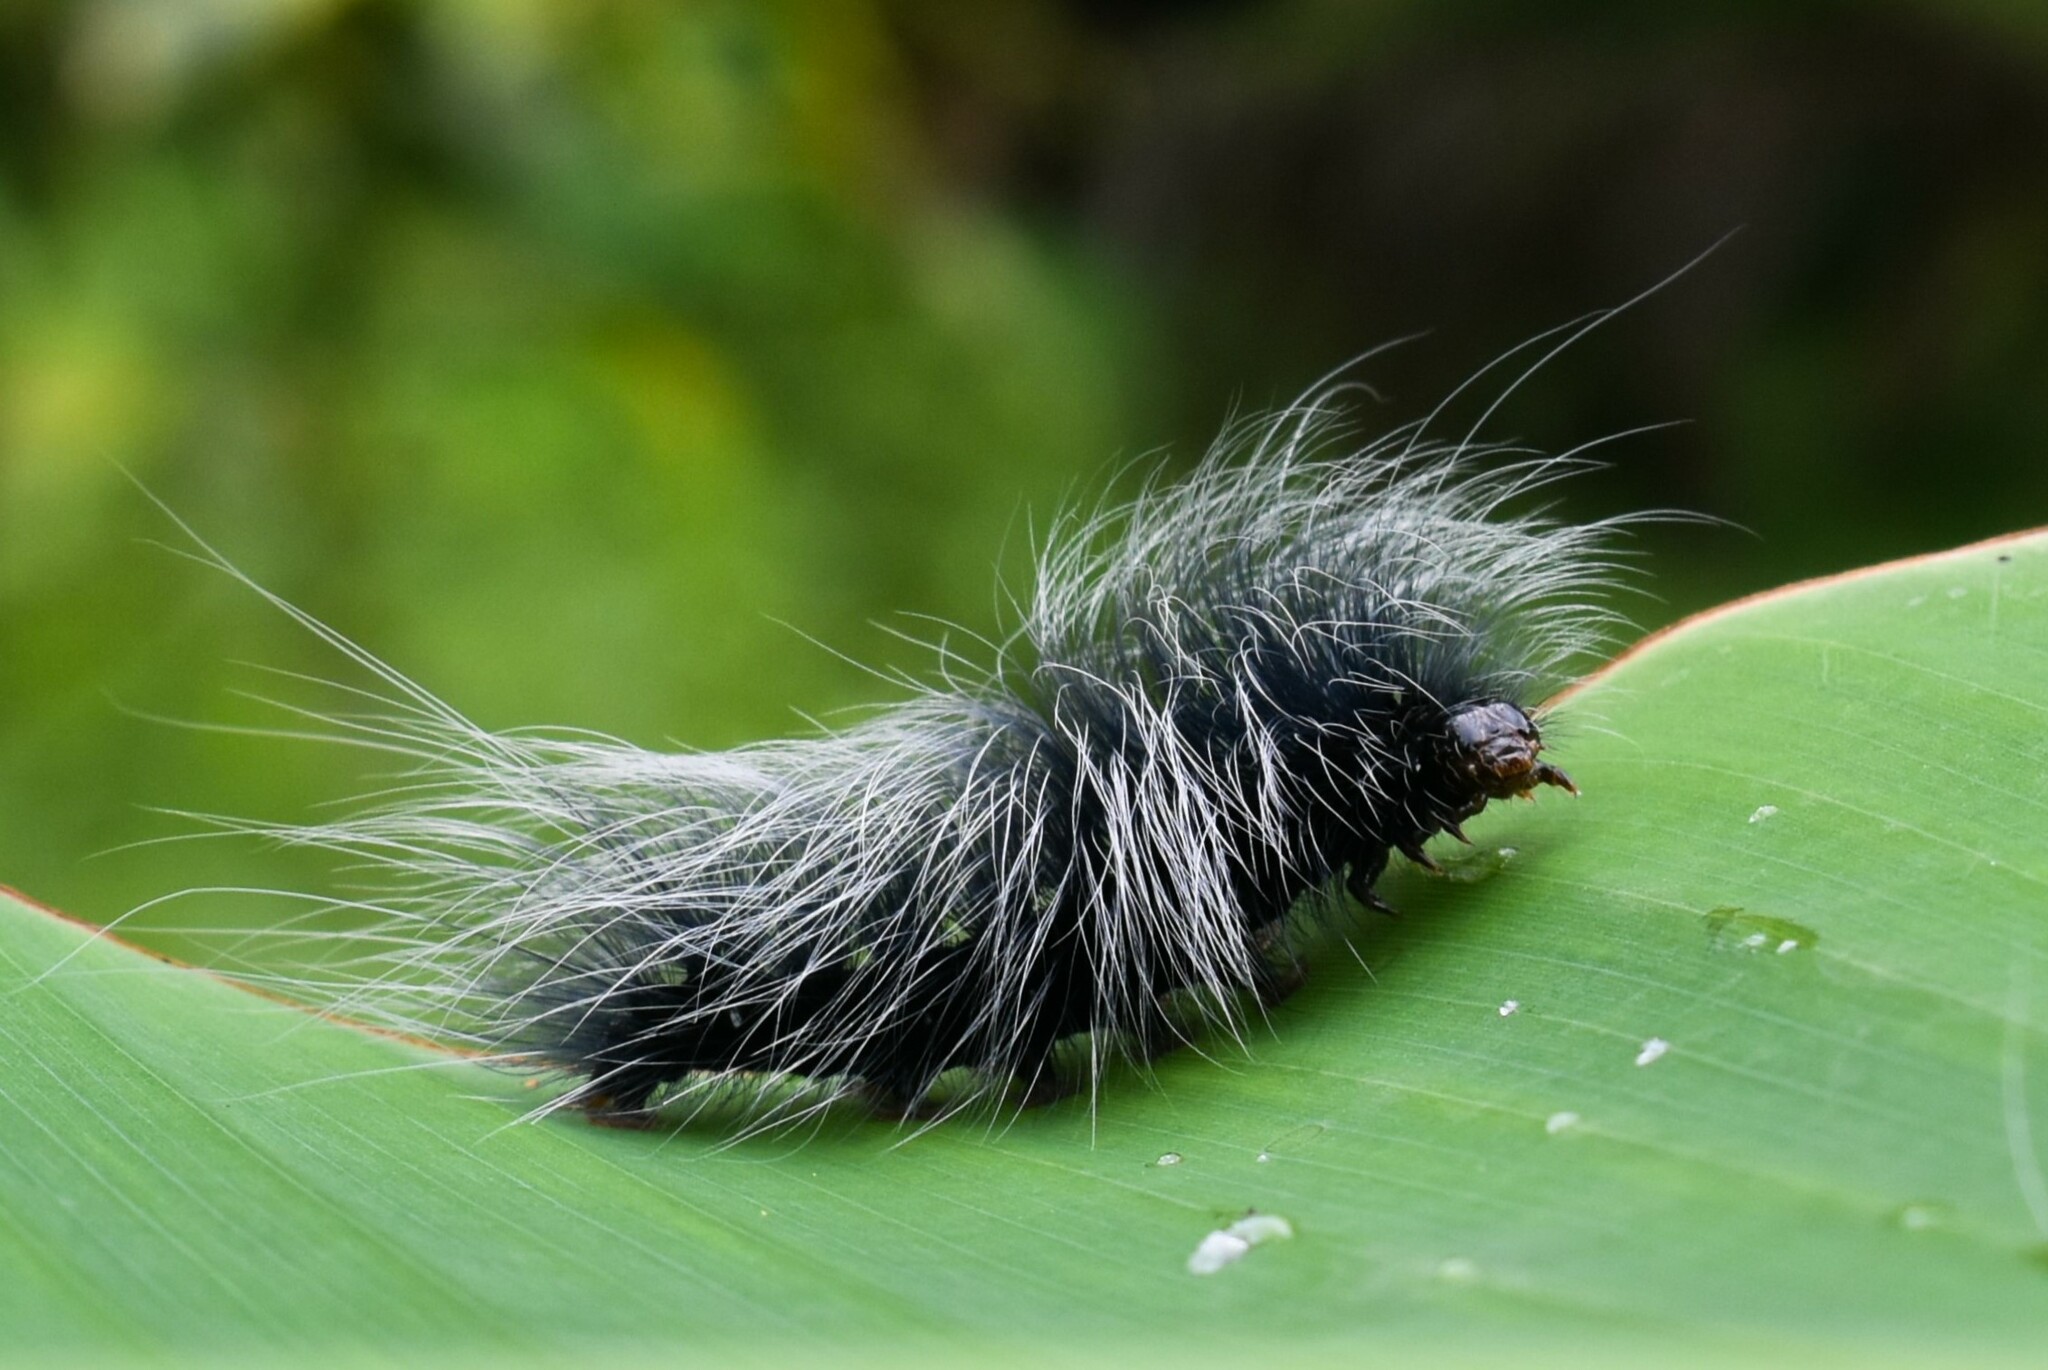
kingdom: Animalia
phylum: Arthropoda
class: Insecta
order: Lepidoptera
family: Erebidae
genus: Macrobrochis
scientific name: Macrobrochis gigas
